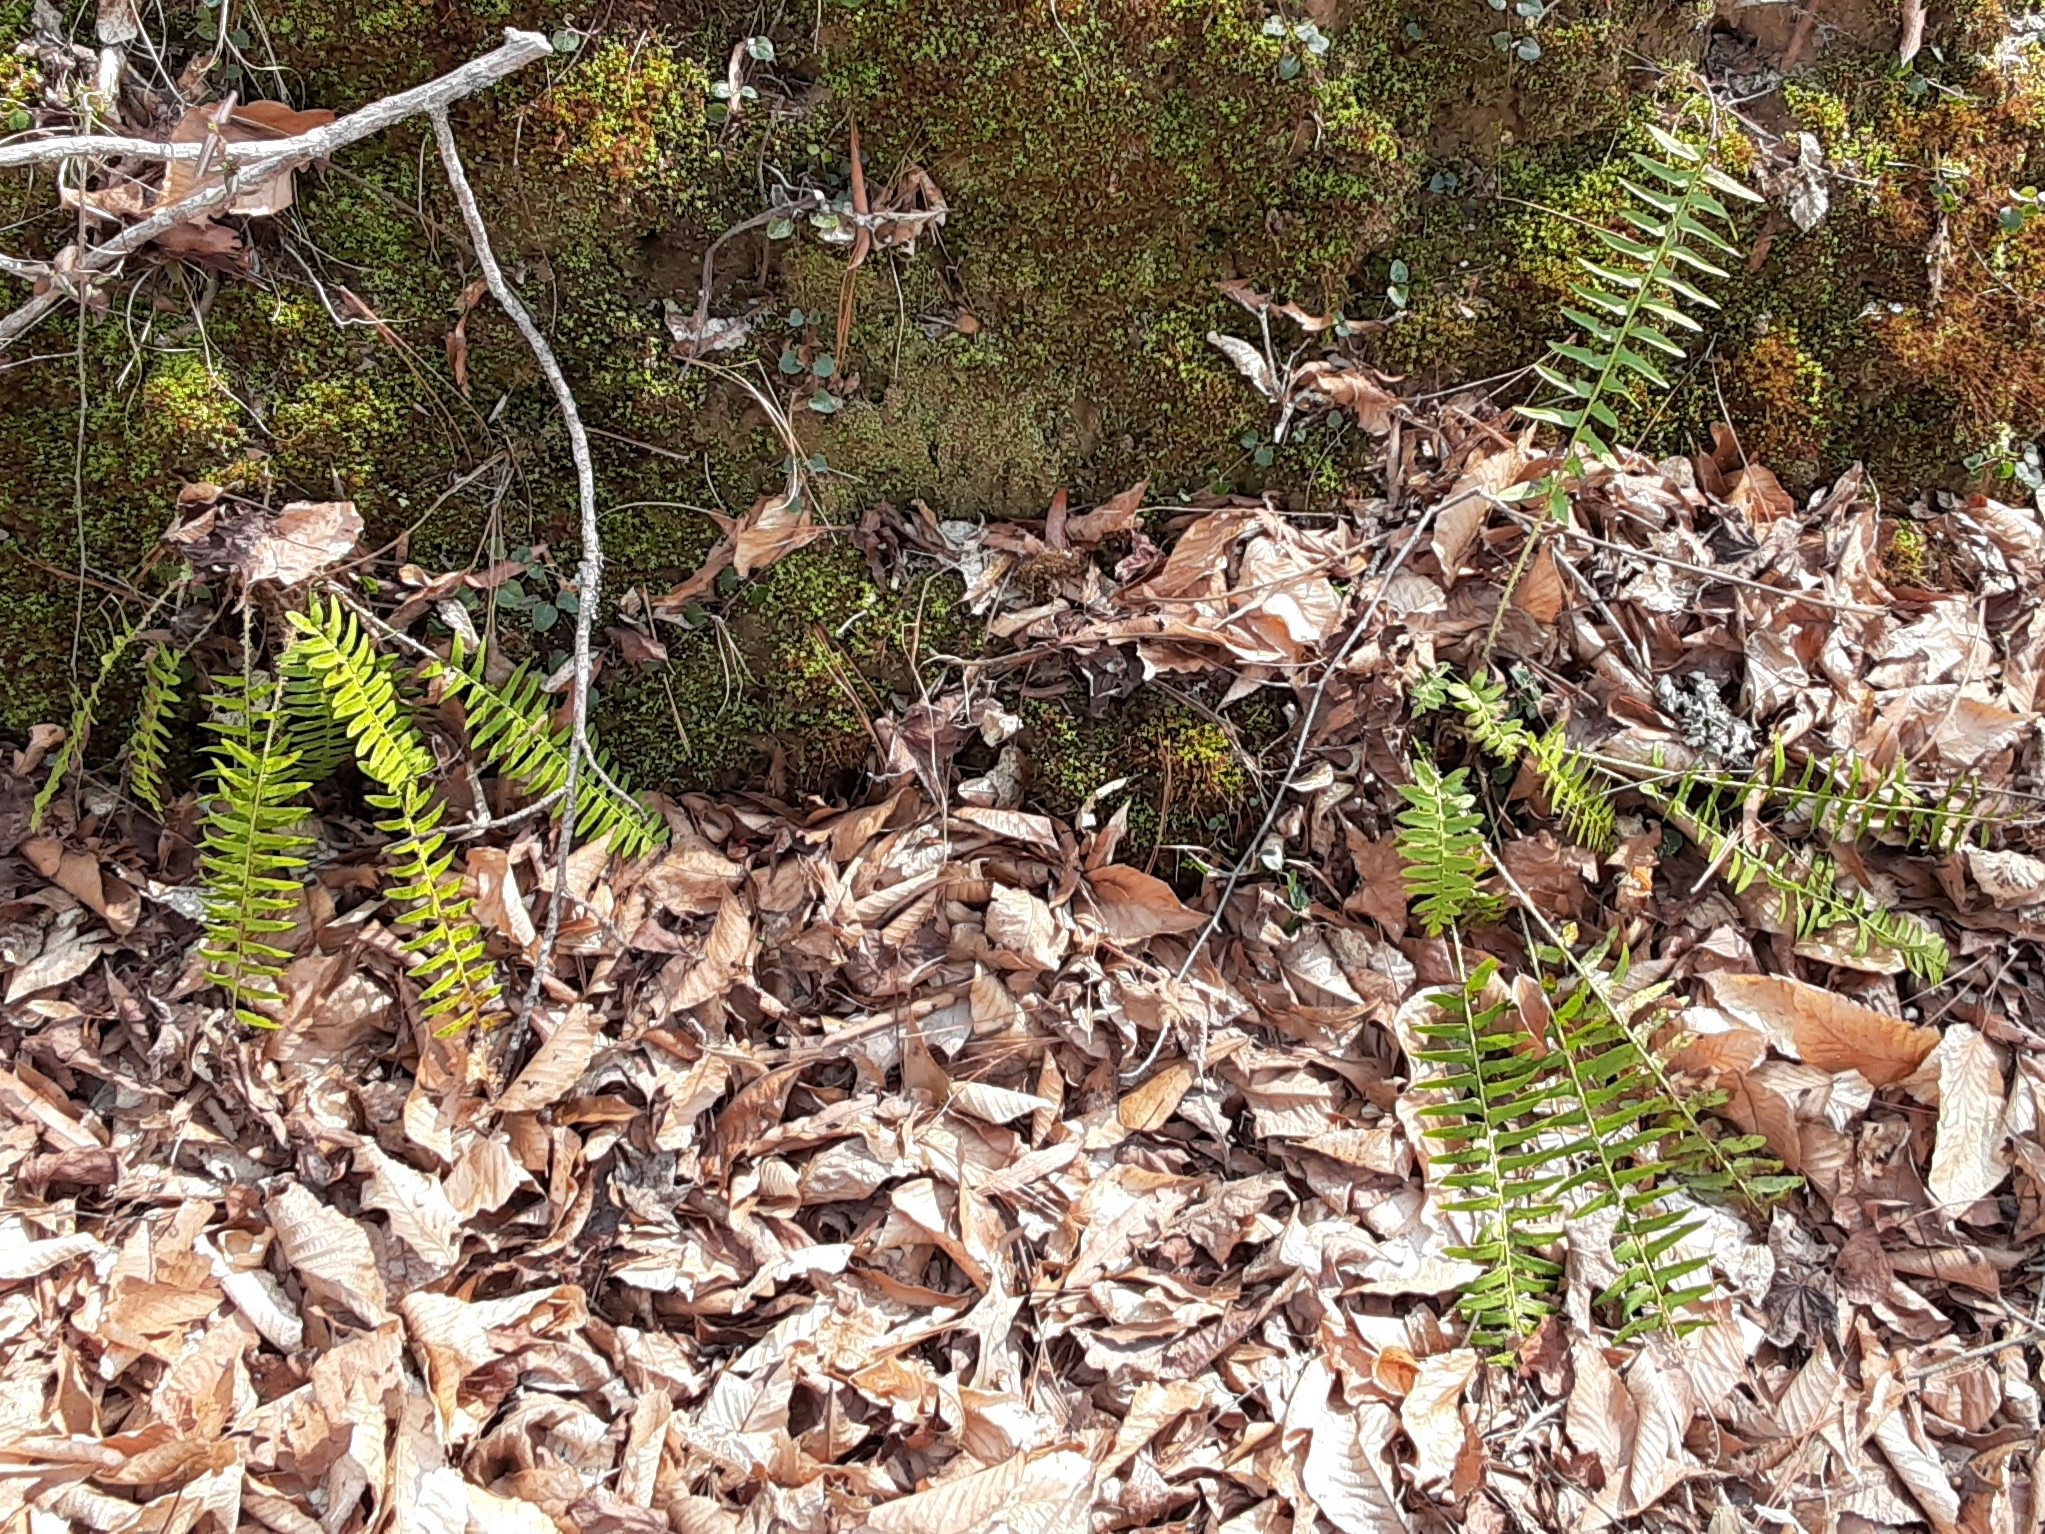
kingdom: Plantae
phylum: Tracheophyta
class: Polypodiopsida
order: Polypodiales
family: Dryopteridaceae
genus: Polystichum
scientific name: Polystichum acrostichoides
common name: Christmas fern
